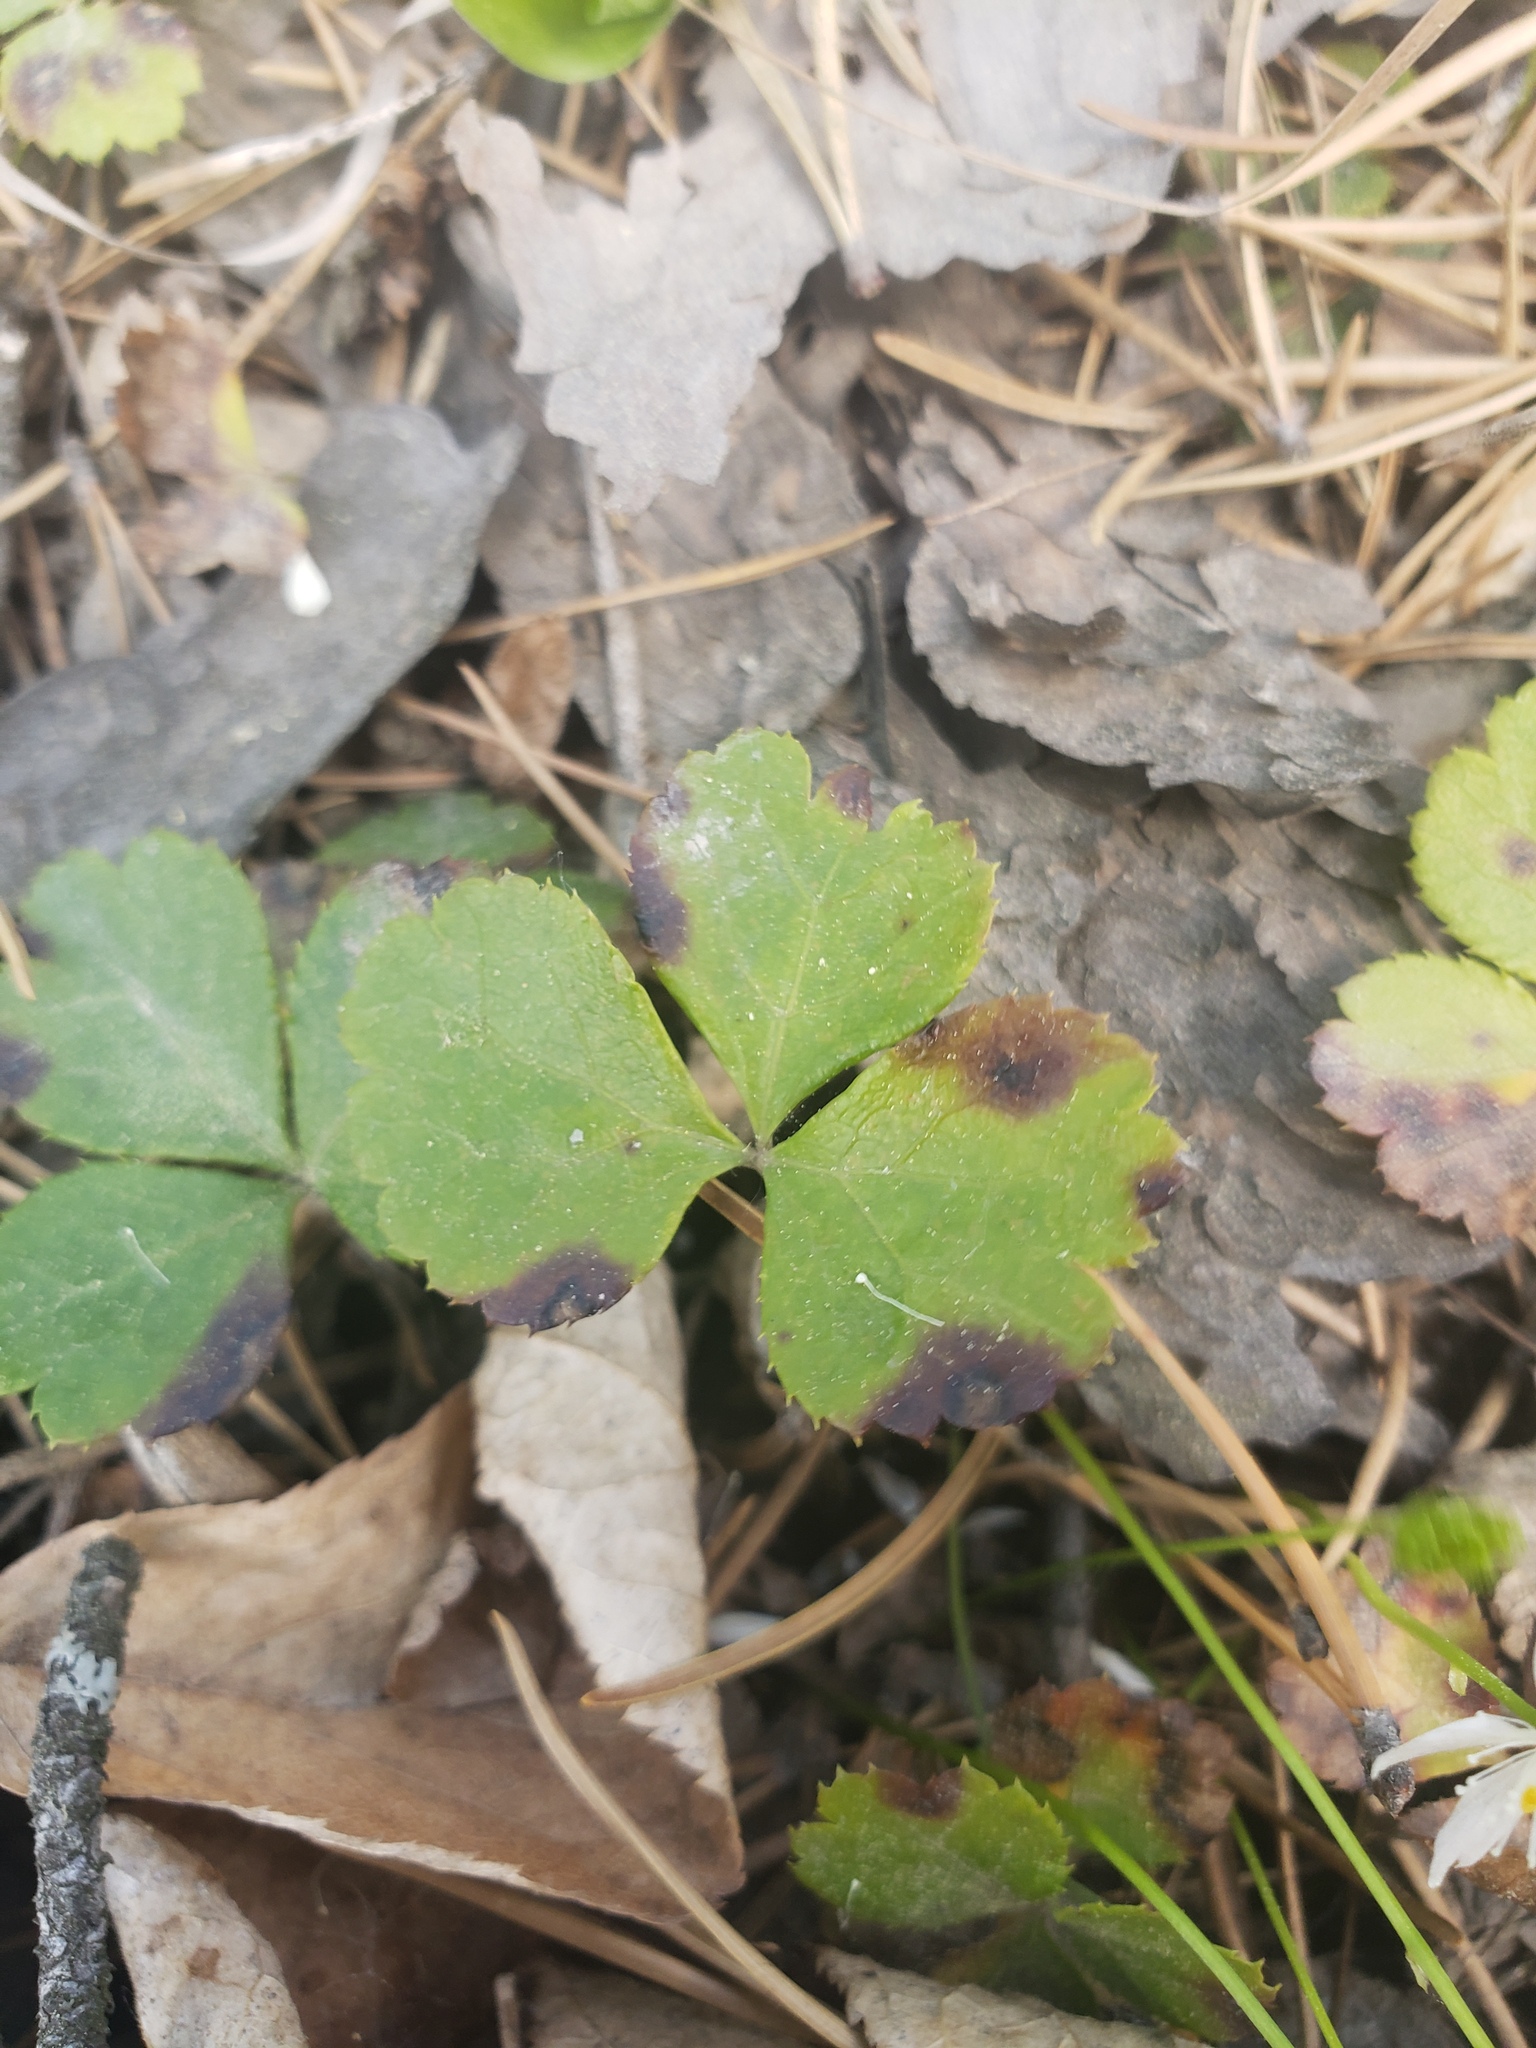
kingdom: Plantae
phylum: Tracheophyta
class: Magnoliopsida
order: Ranunculales
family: Ranunculaceae
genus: Coptis
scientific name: Coptis trifolia
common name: Canker-root
